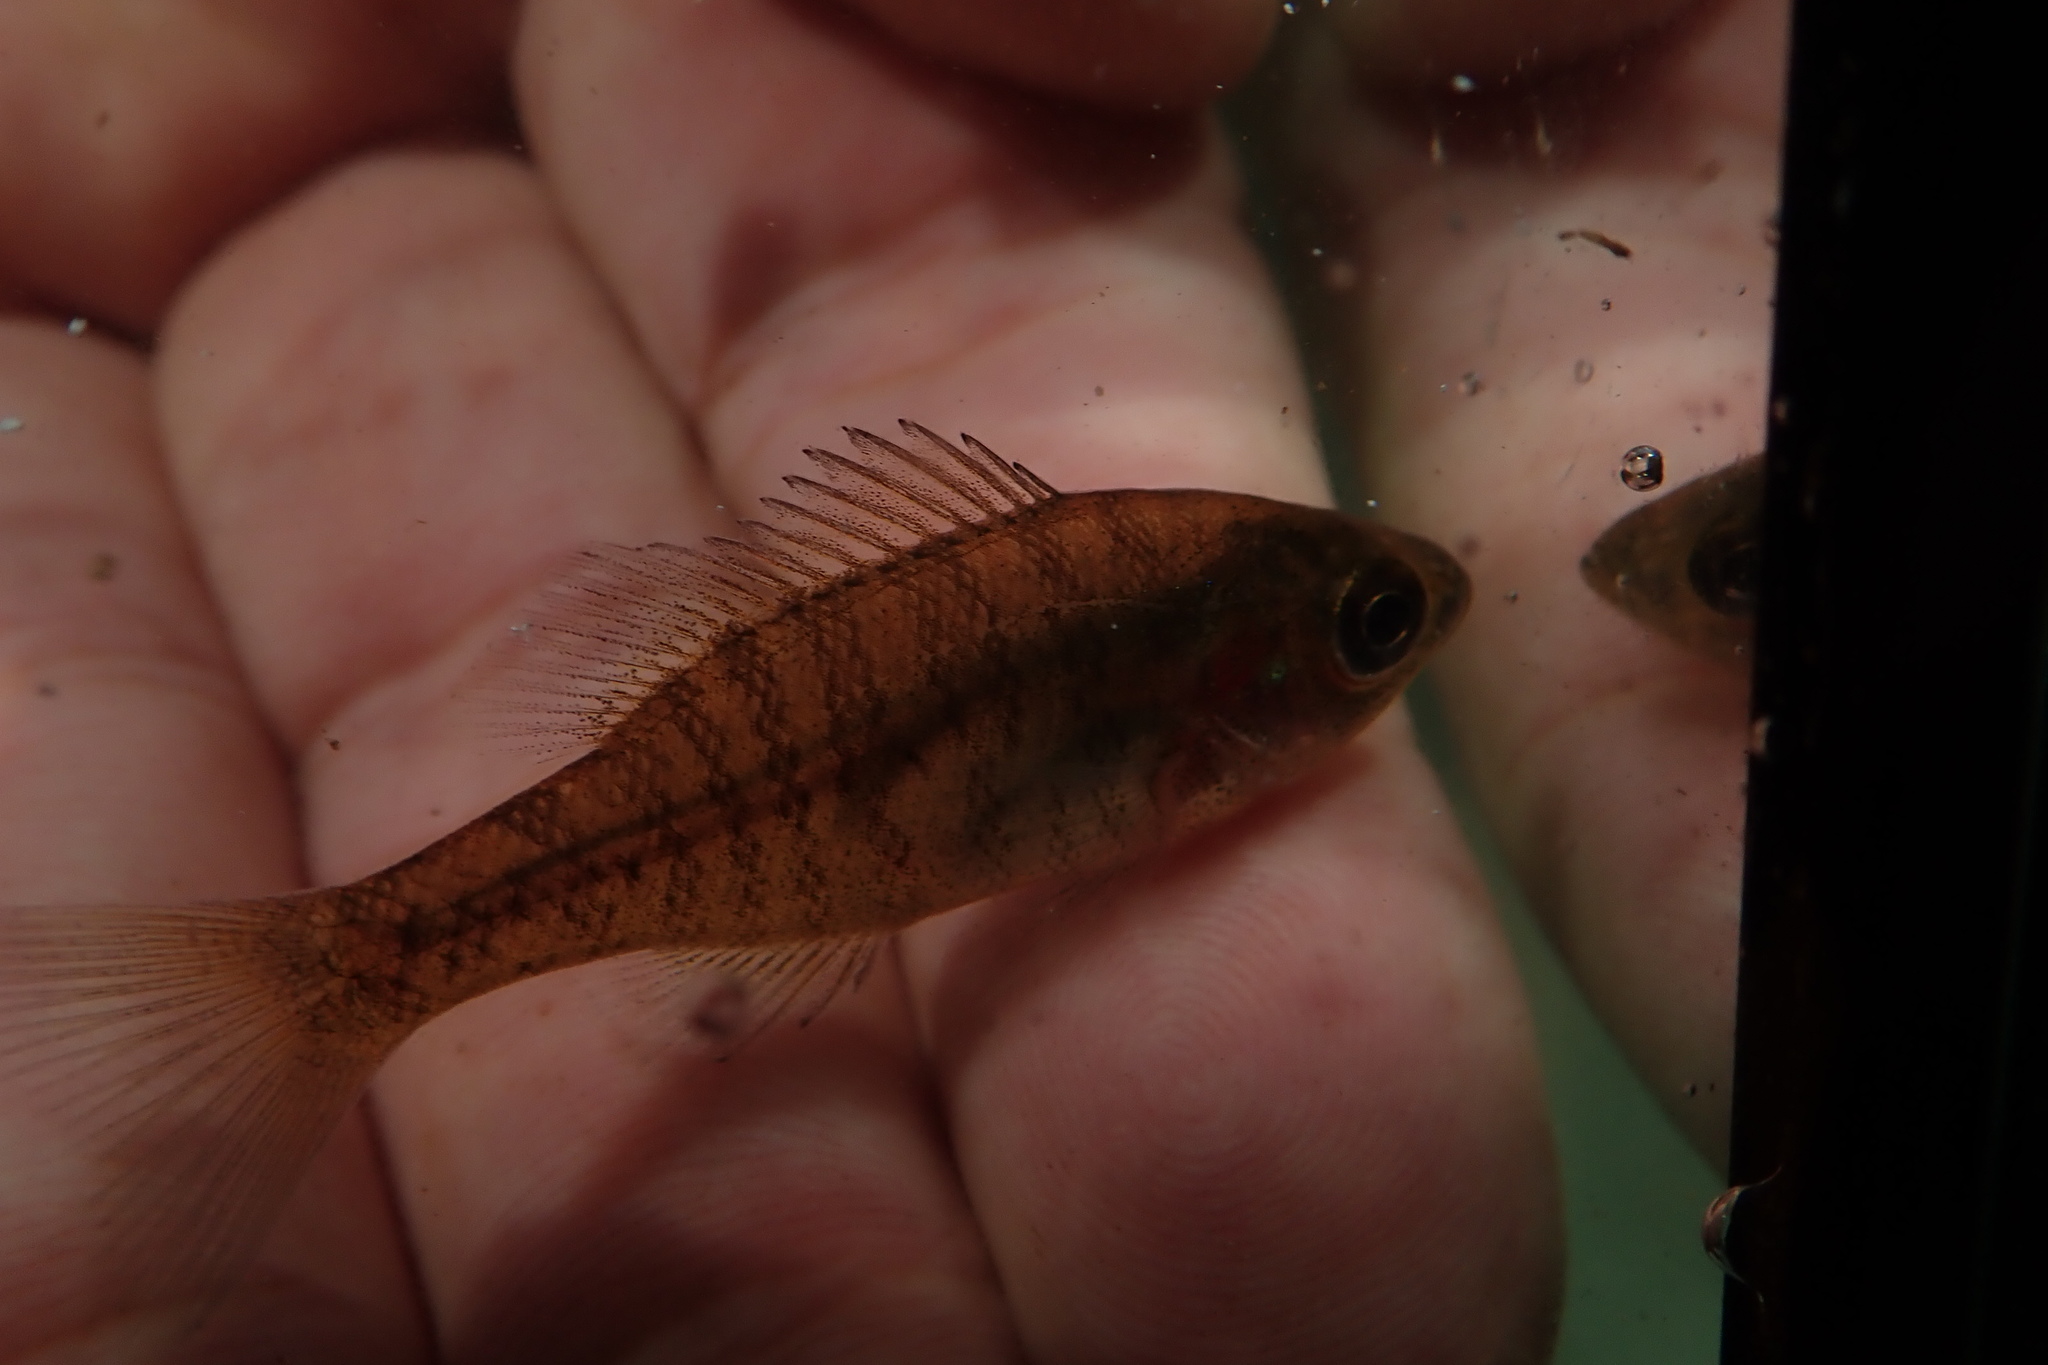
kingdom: Animalia
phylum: Chordata
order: Perciformes
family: Centrarchidae
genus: Lepomis
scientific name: Lepomis macrochirus
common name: Bluegill
